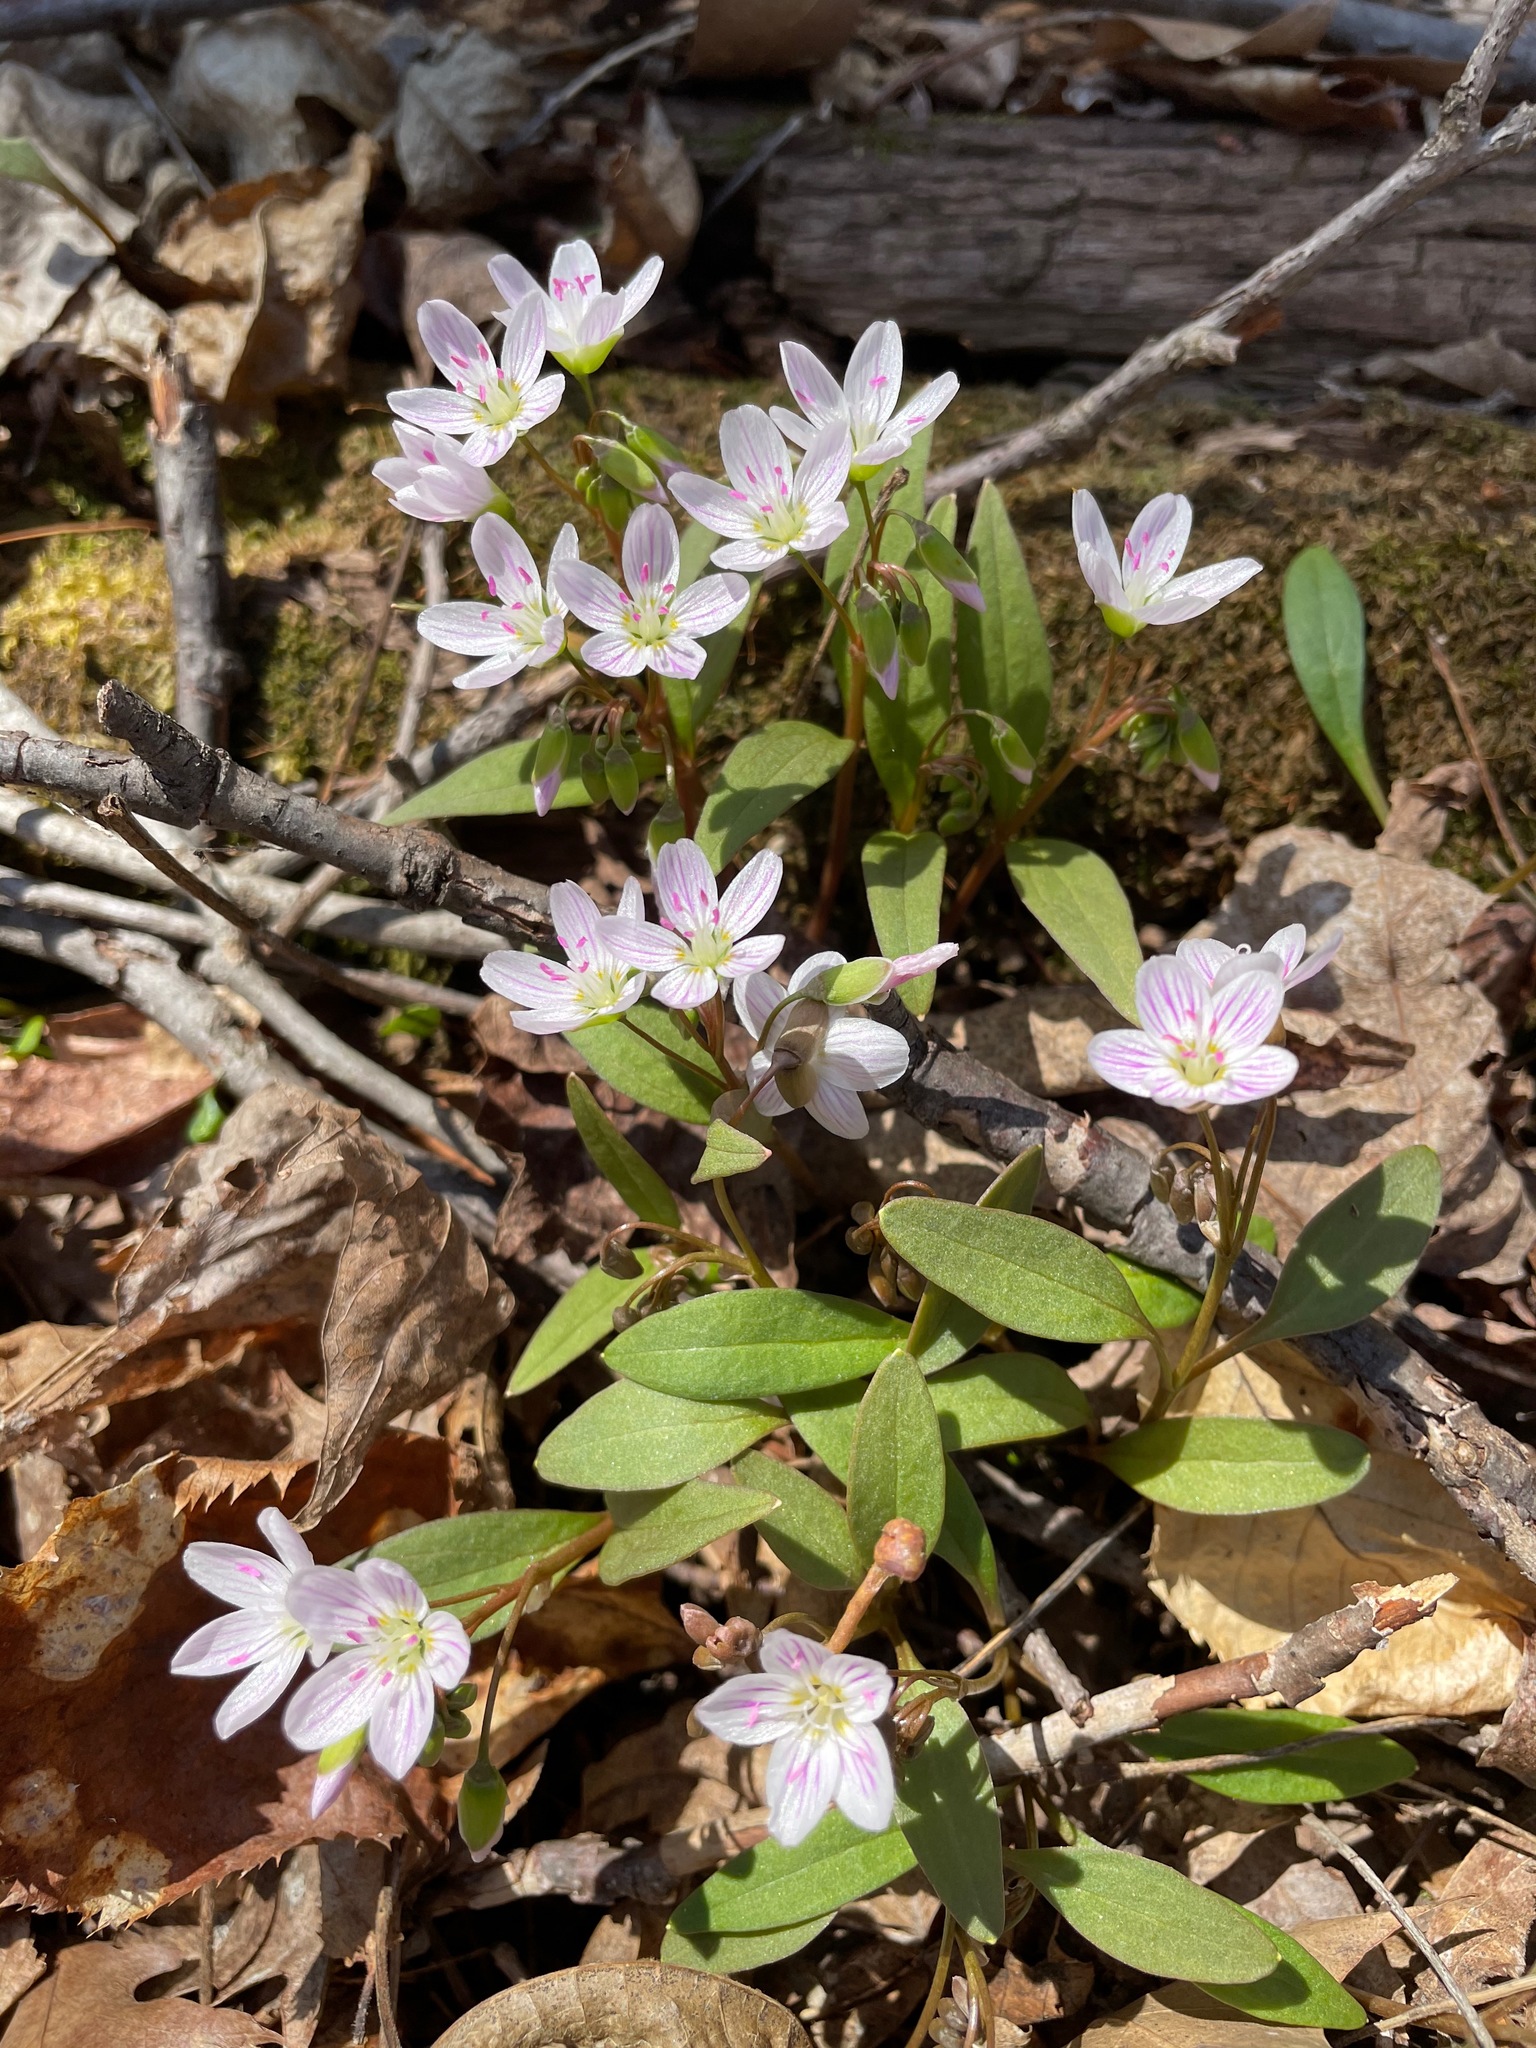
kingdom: Plantae
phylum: Tracheophyta
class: Magnoliopsida
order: Caryophyllales
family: Montiaceae
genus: Claytonia
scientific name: Claytonia caroliniana
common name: Carolina spring beauty
